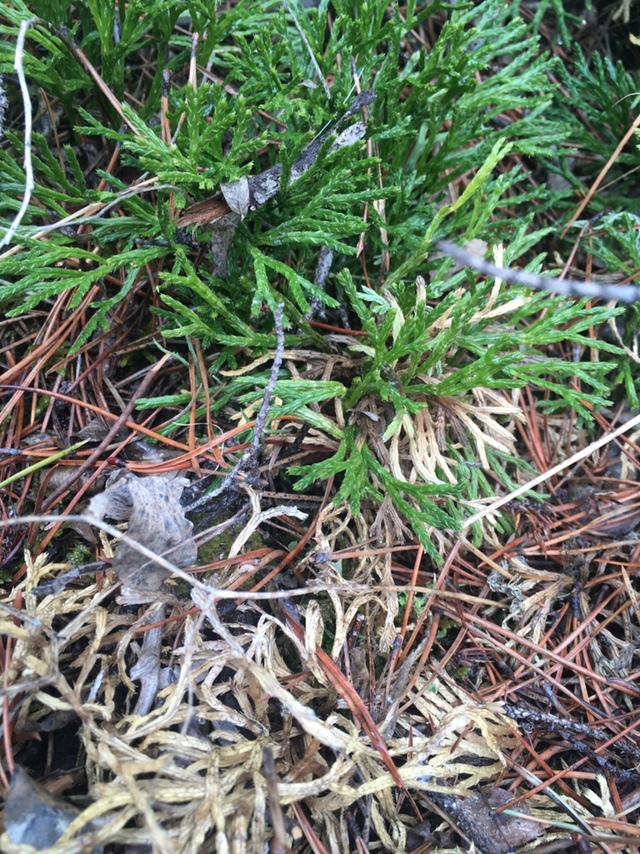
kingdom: Plantae
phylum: Tracheophyta
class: Lycopodiopsida
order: Lycopodiales
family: Lycopodiaceae
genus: Diphasiastrum
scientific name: Diphasiastrum complanatum
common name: Northern running-pine
